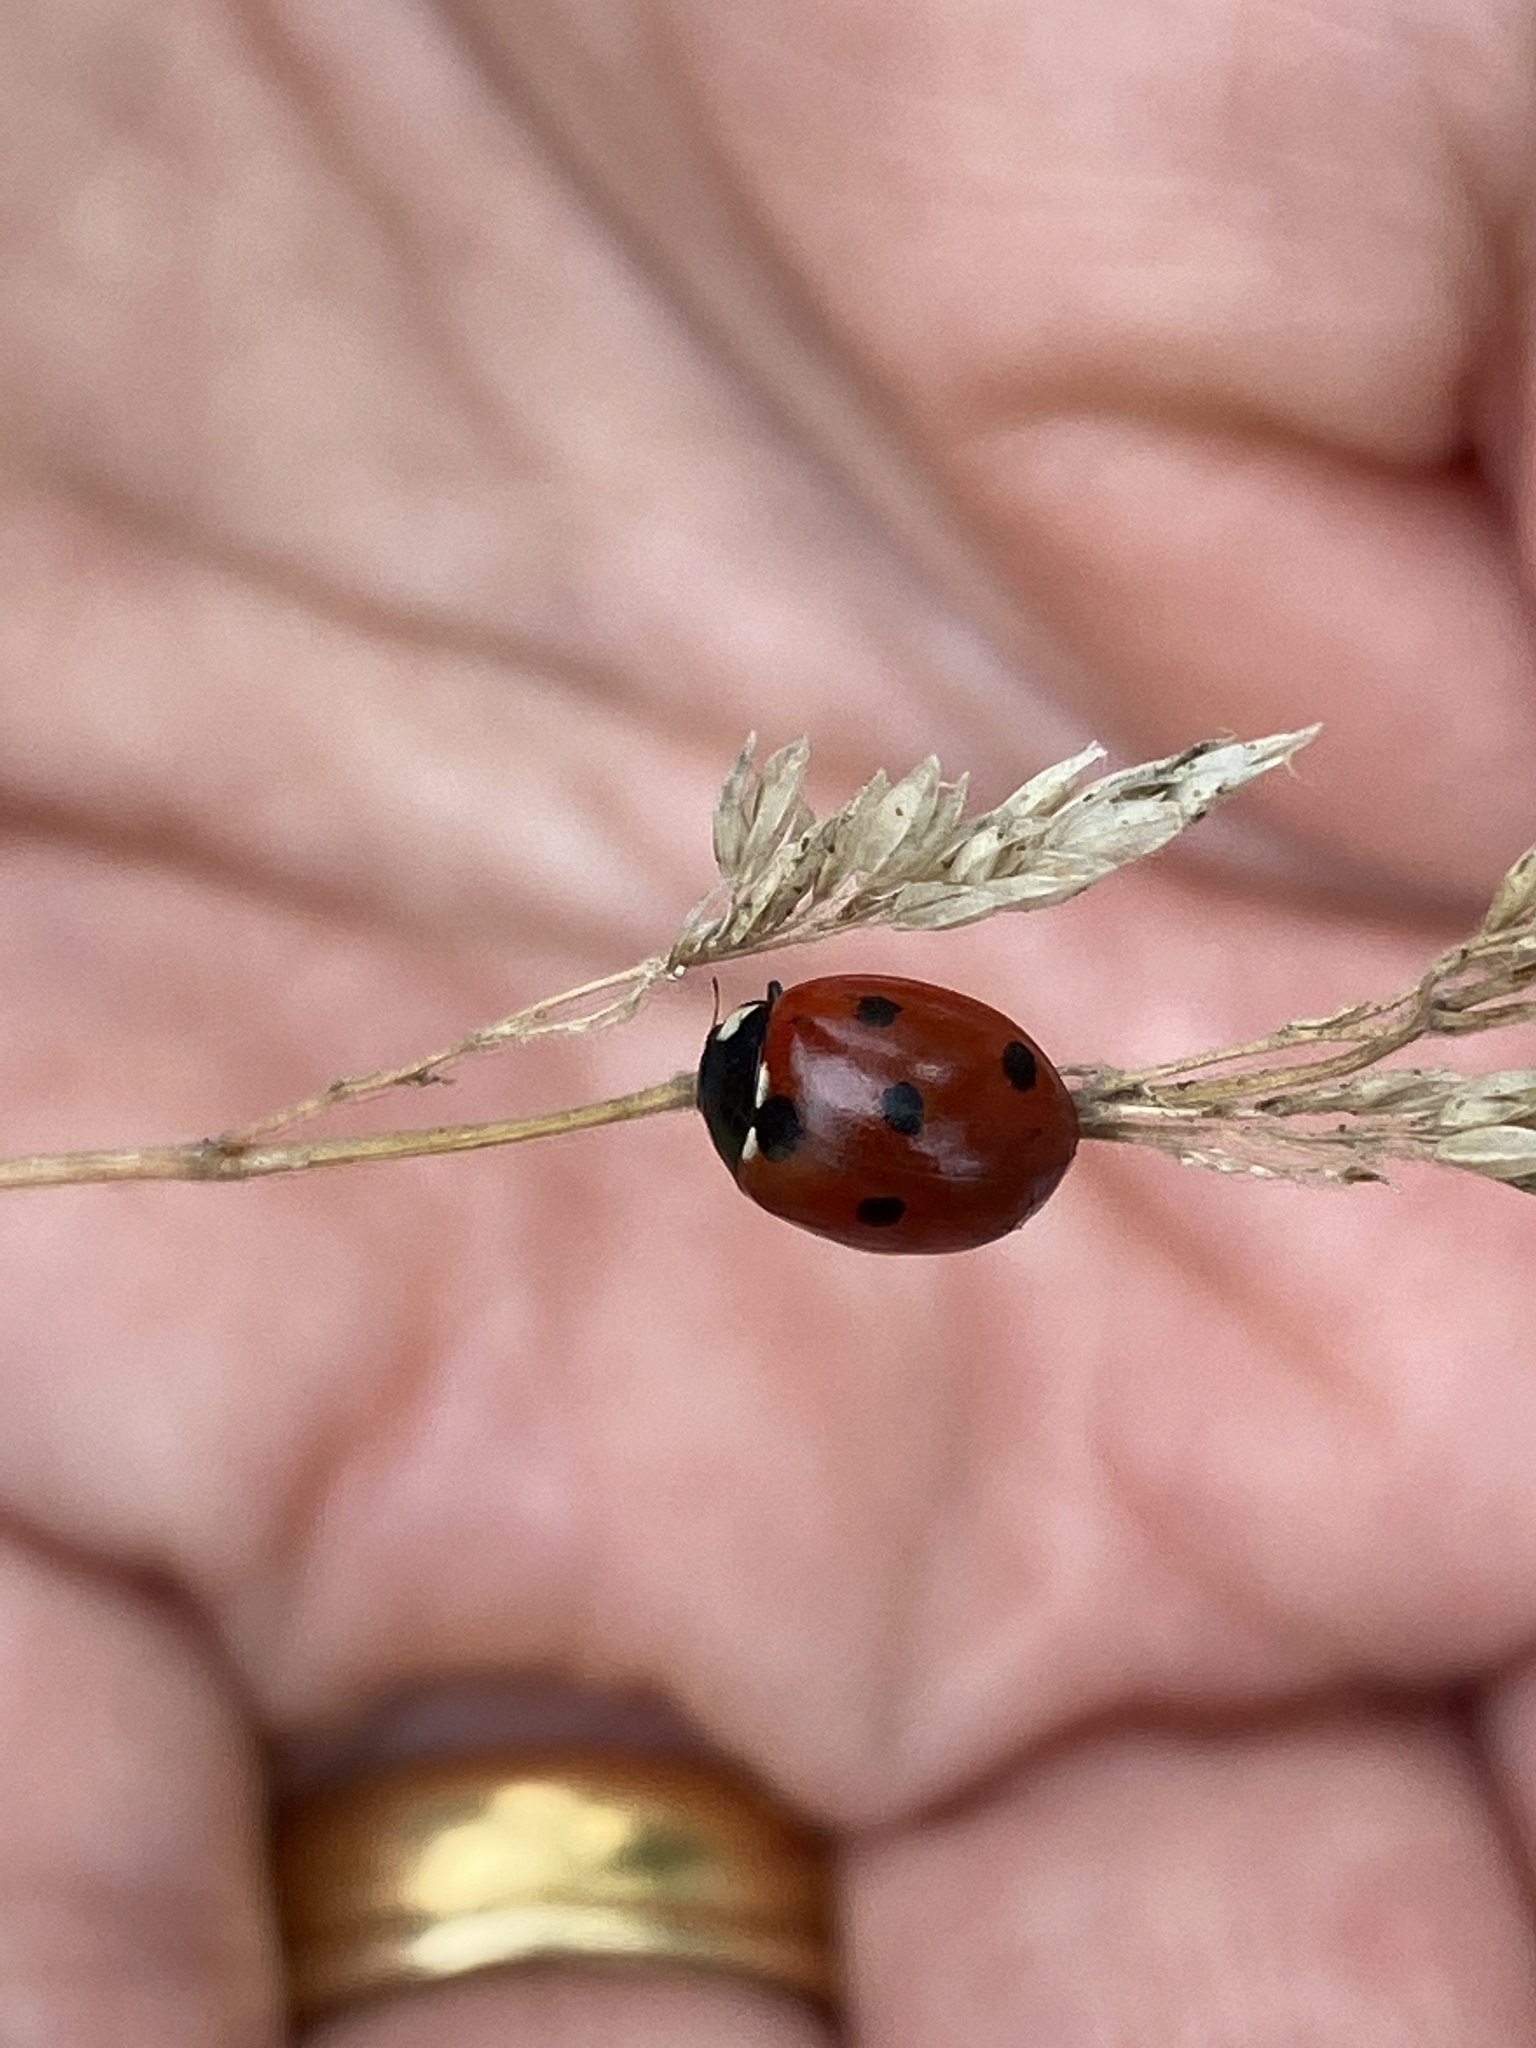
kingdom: Animalia
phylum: Arthropoda
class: Insecta
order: Coleoptera
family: Coccinellidae
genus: Coccinella
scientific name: Coccinella septempunctata
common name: Sevenspotted lady beetle
